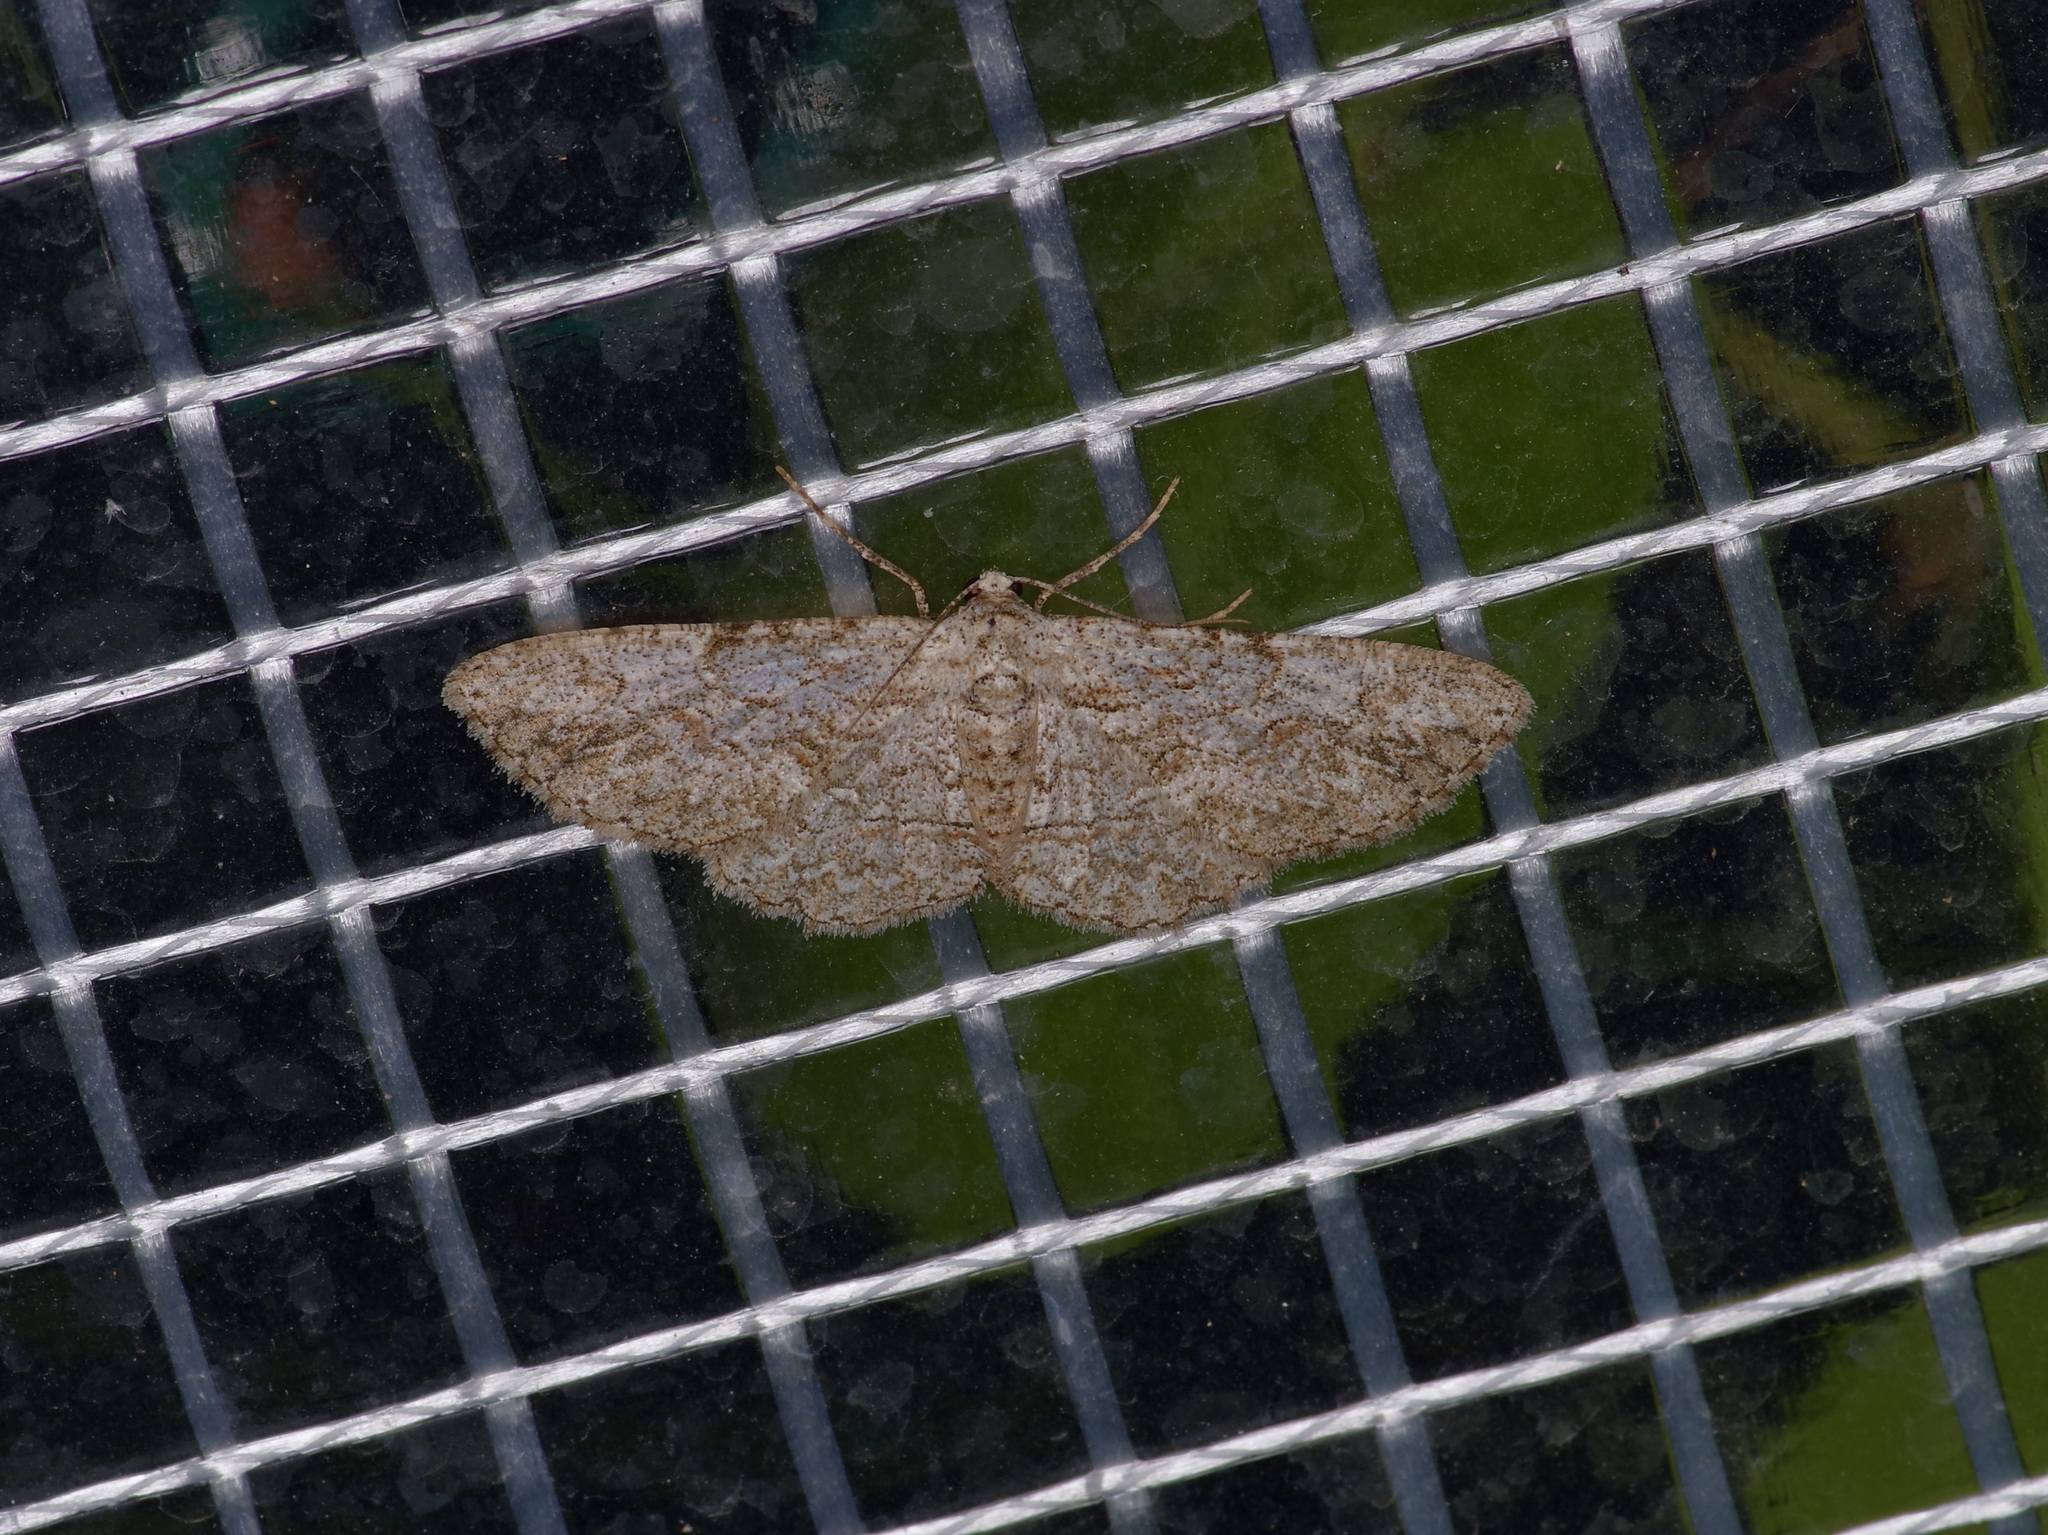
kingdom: Animalia
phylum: Arthropoda
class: Insecta
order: Lepidoptera
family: Geometridae
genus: Iridopsis
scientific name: Iridopsis defectaria
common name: Brown-shaded gray
